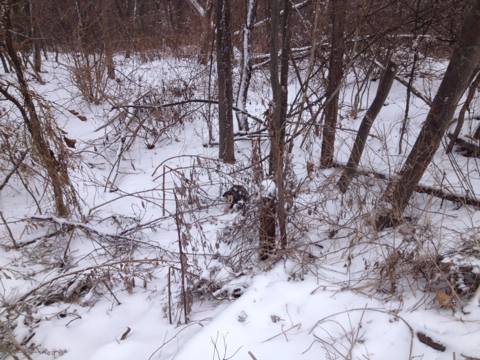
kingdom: Animalia
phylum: Chordata
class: Mammalia
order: Didelphimorphia
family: Didelphidae
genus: Didelphis
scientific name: Didelphis virginiana
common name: Virginia opossum
